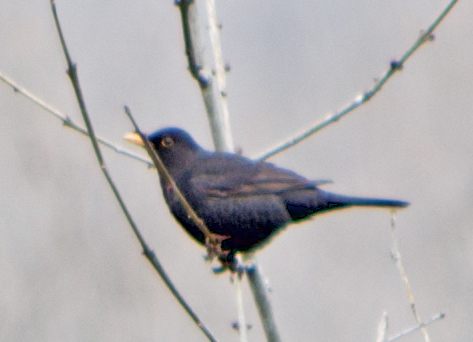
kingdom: Animalia
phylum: Chordata
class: Aves
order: Passeriformes
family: Turdidae
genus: Turdus
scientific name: Turdus merula
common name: Common blackbird
